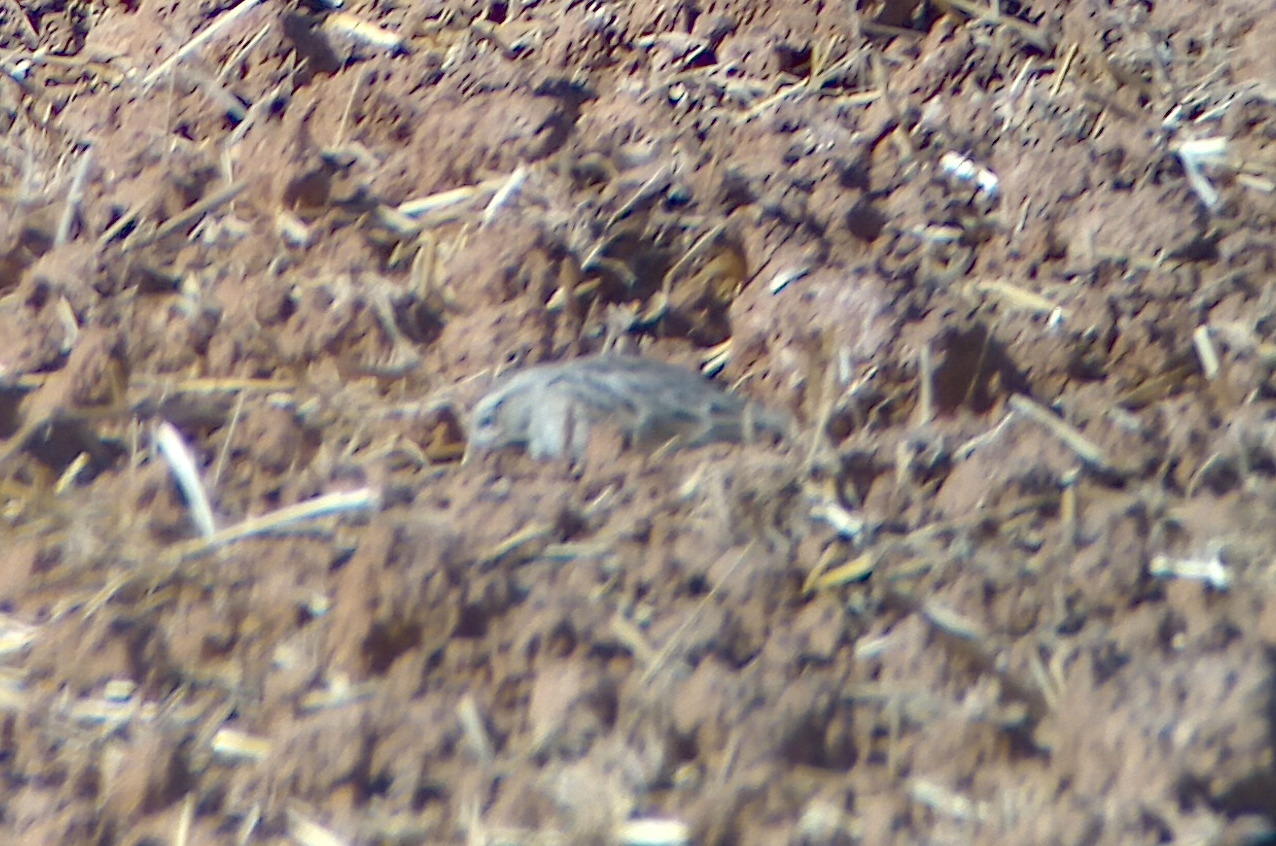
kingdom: Animalia
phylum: Chordata
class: Aves
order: Passeriformes
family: Calcariidae
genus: Rhynchophanes
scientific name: Rhynchophanes mccownii
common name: Mccown's longspur
